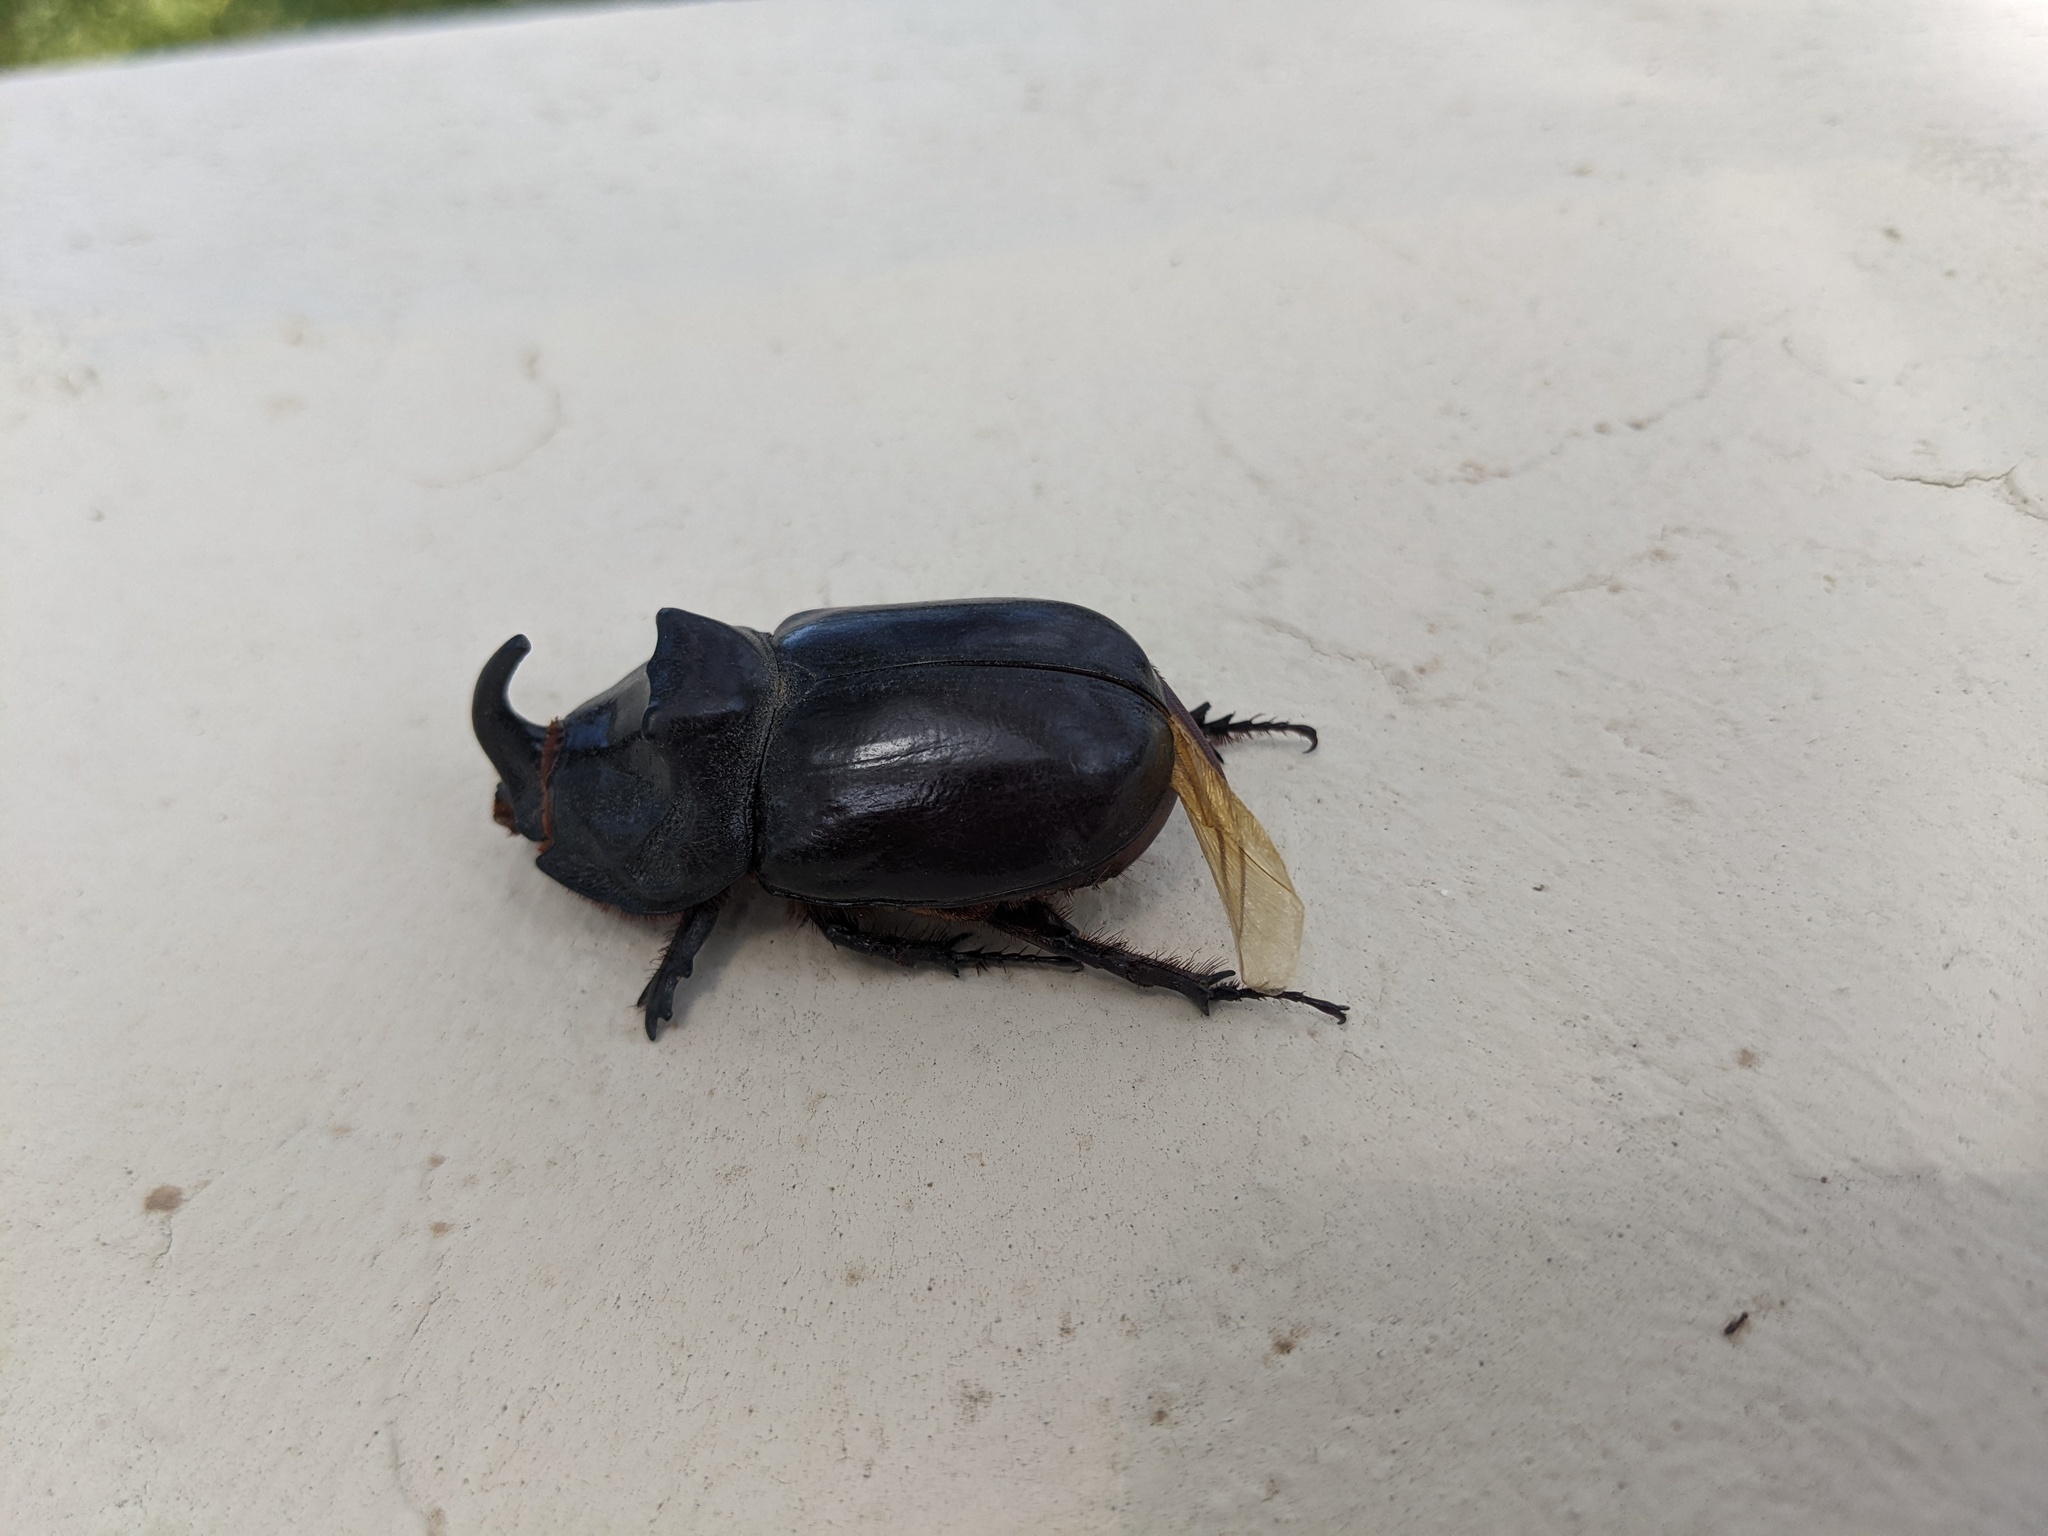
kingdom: Animalia
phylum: Arthropoda
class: Insecta
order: Coleoptera
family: Scarabaeidae
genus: Oryctes
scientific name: Oryctes nasicornis
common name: European rhinoceros beetle
